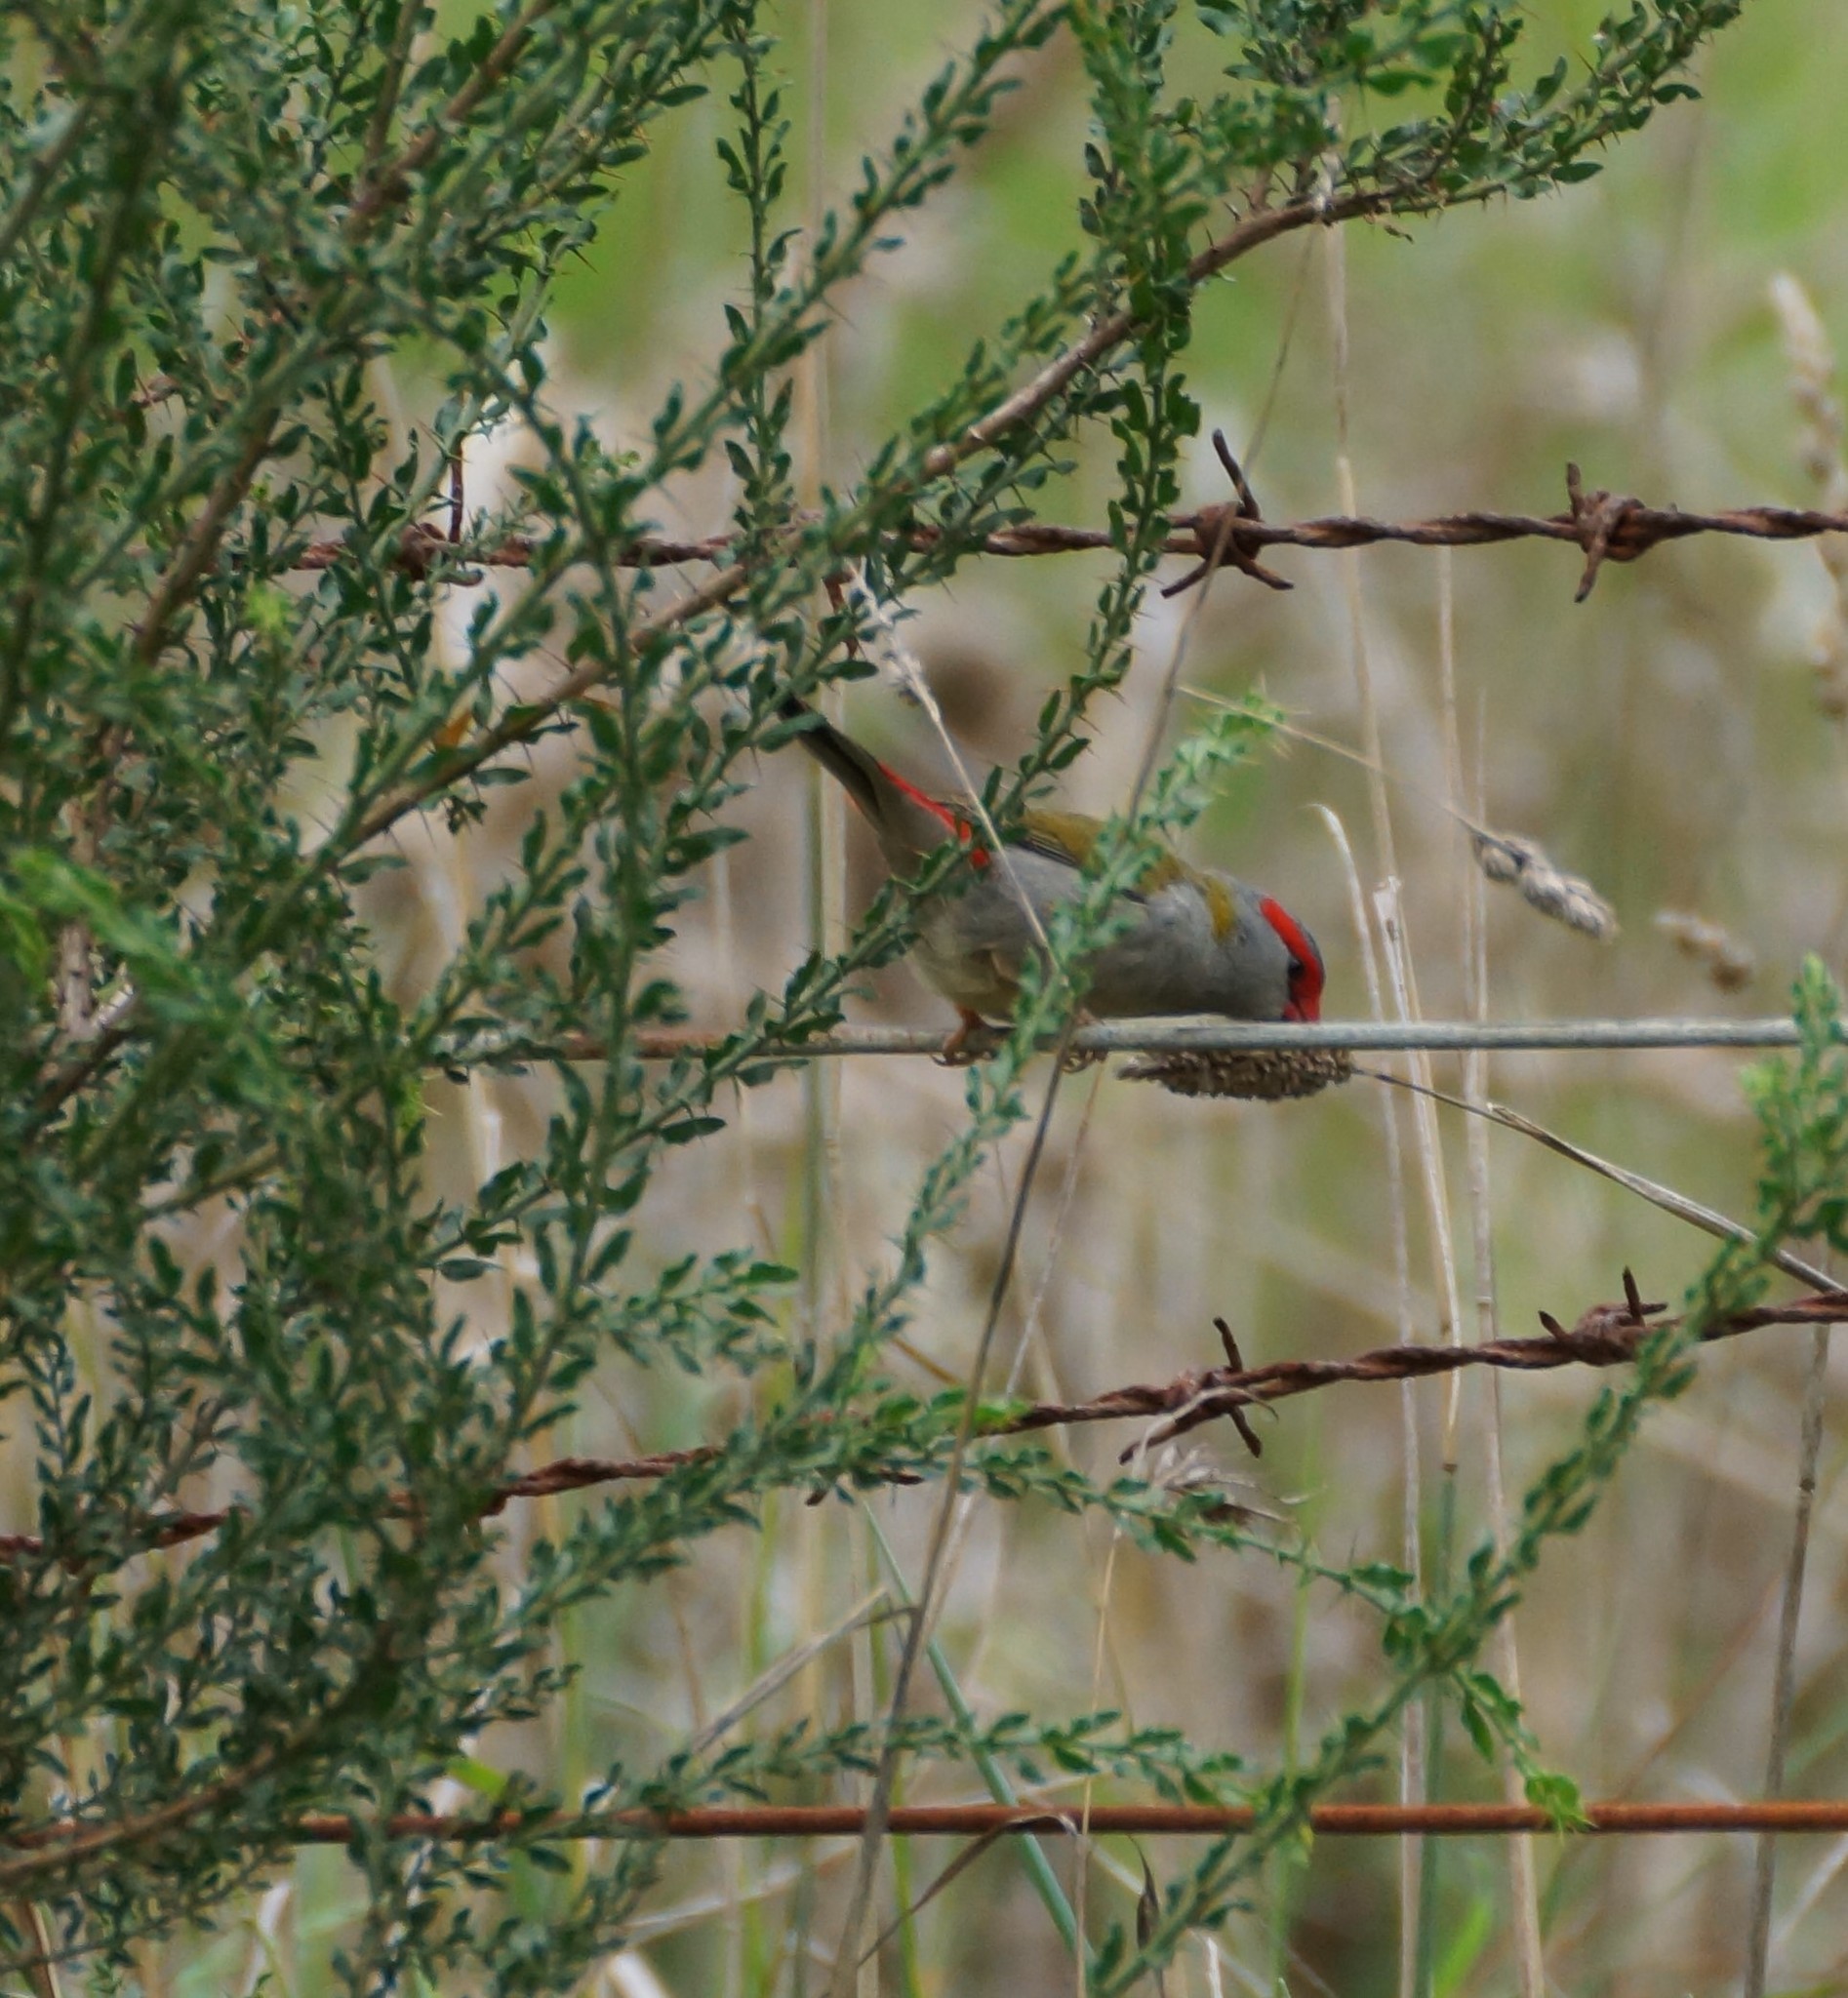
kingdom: Animalia
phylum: Chordata
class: Aves
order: Passeriformes
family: Estrildidae
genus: Neochmia
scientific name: Neochmia temporalis
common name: Red-browed finch
